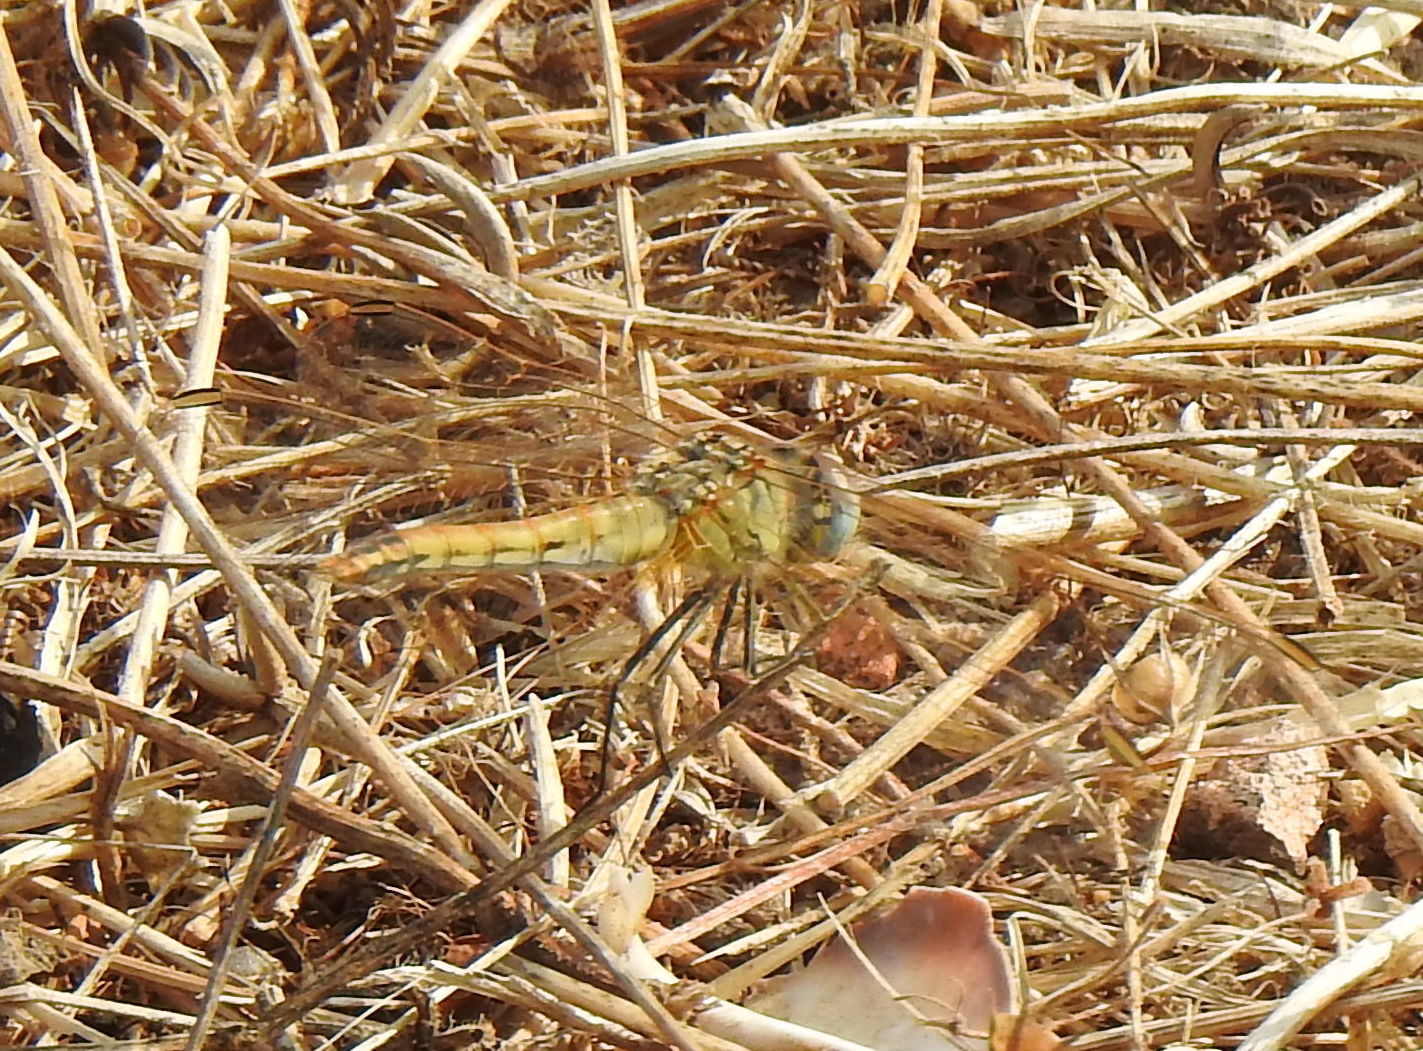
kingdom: Animalia
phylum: Arthropoda
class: Insecta
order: Odonata
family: Libellulidae
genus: Sympetrum
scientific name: Sympetrum fonscolombii
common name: Red-veined darter
